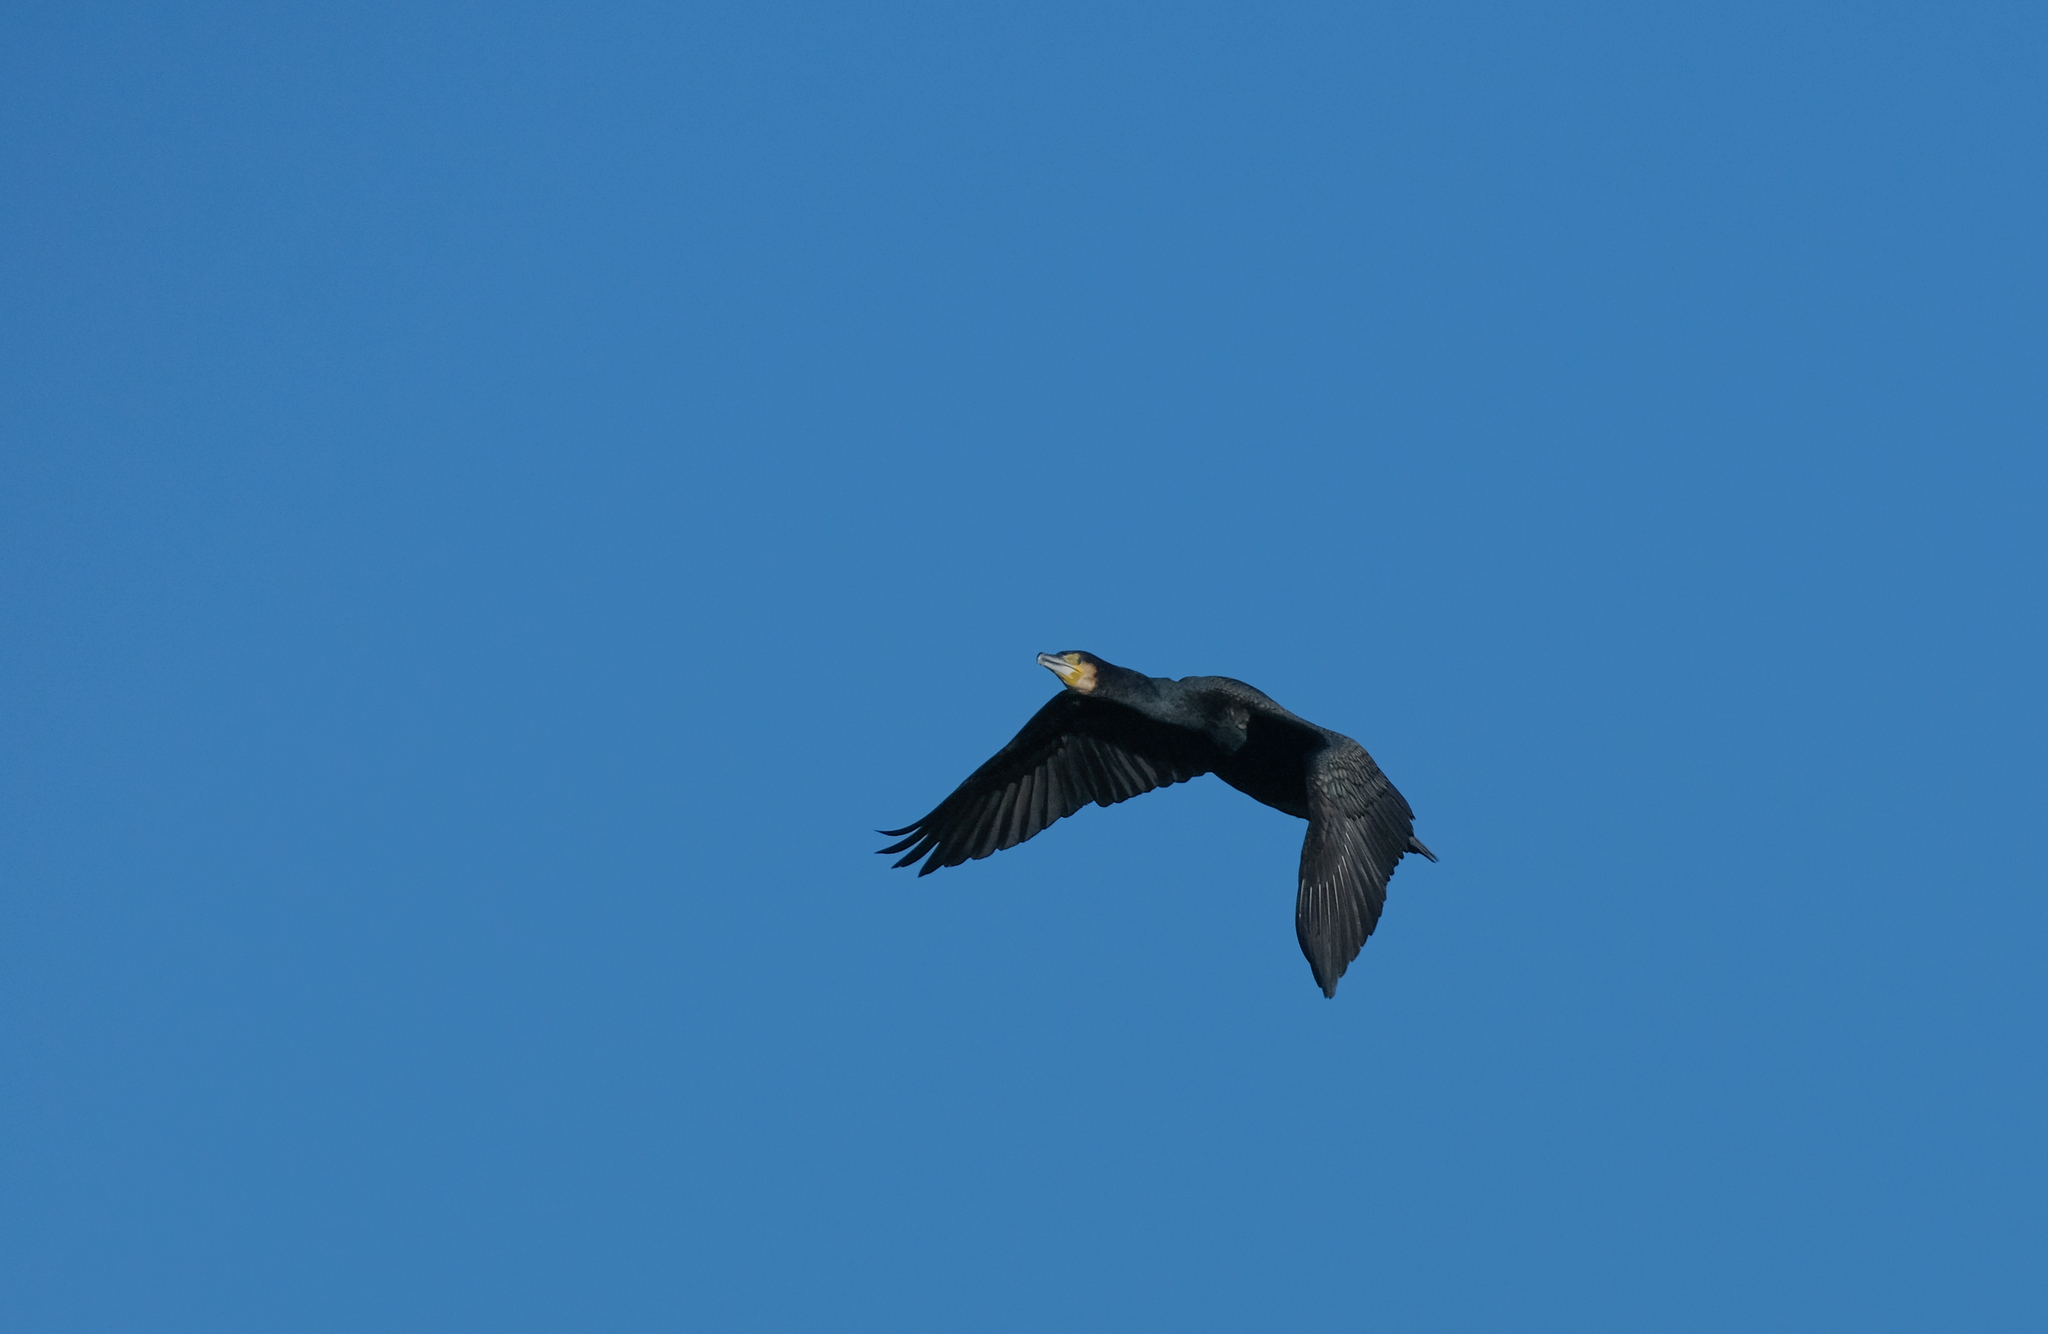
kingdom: Animalia
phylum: Chordata
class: Aves
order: Suliformes
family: Phalacrocoracidae
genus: Phalacrocorax
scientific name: Phalacrocorax carbo
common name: Great cormorant
